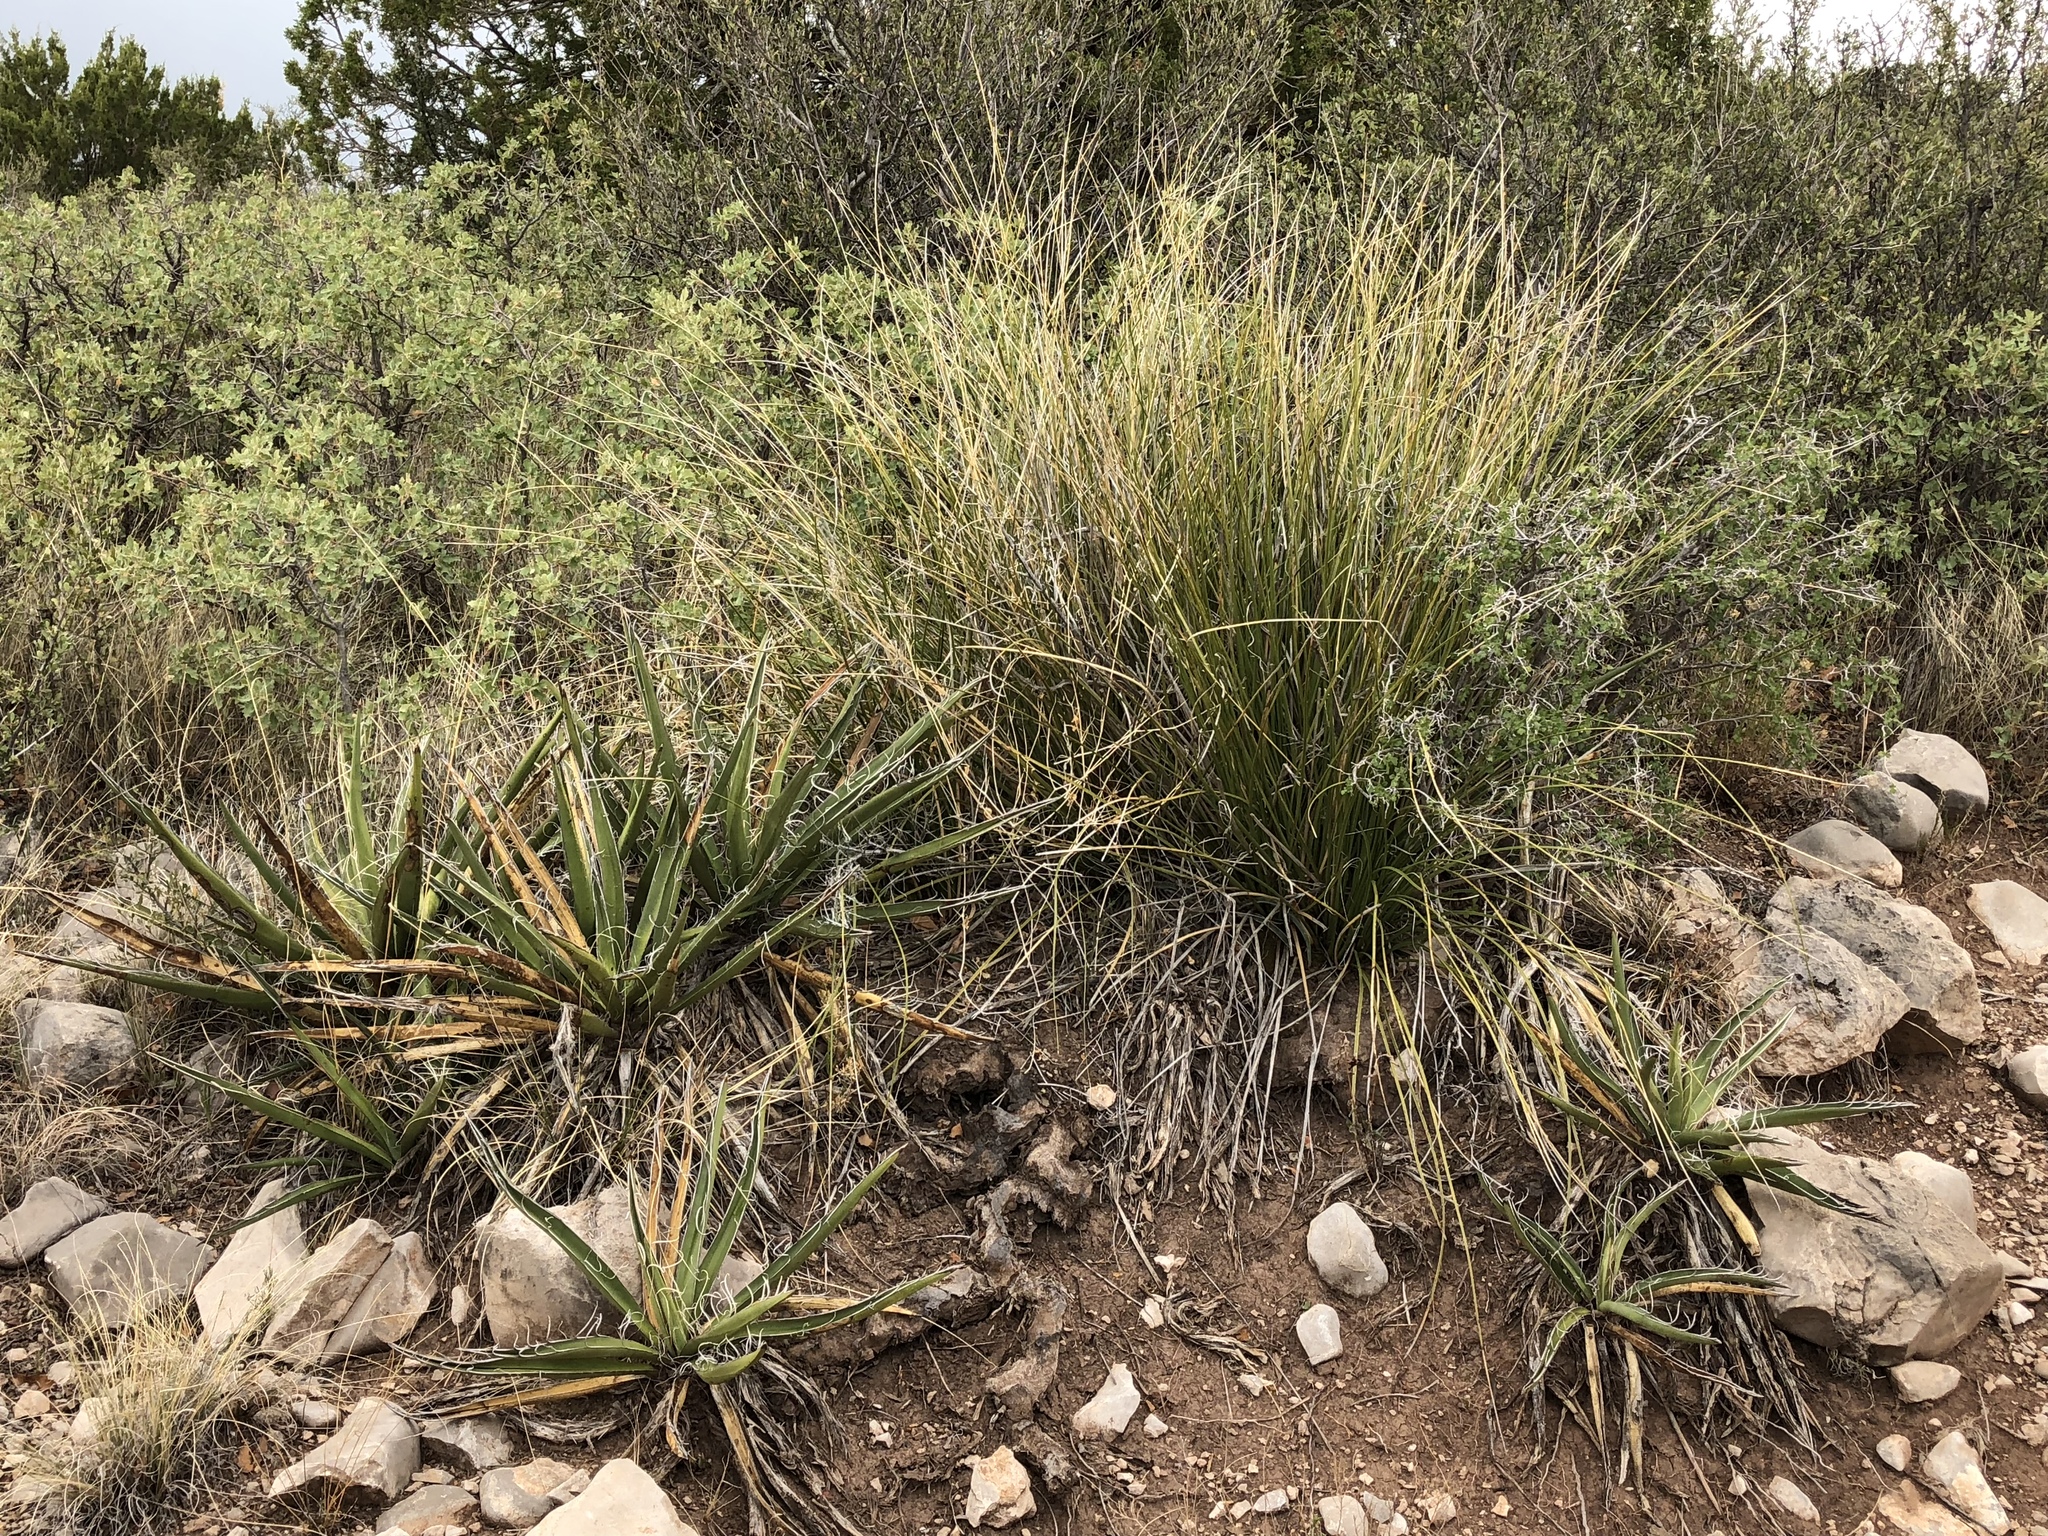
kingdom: Plantae
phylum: Tracheophyta
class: Liliopsida
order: Asparagales
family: Asparagaceae
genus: Nolina
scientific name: Nolina microcarpa
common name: Bear-grass
